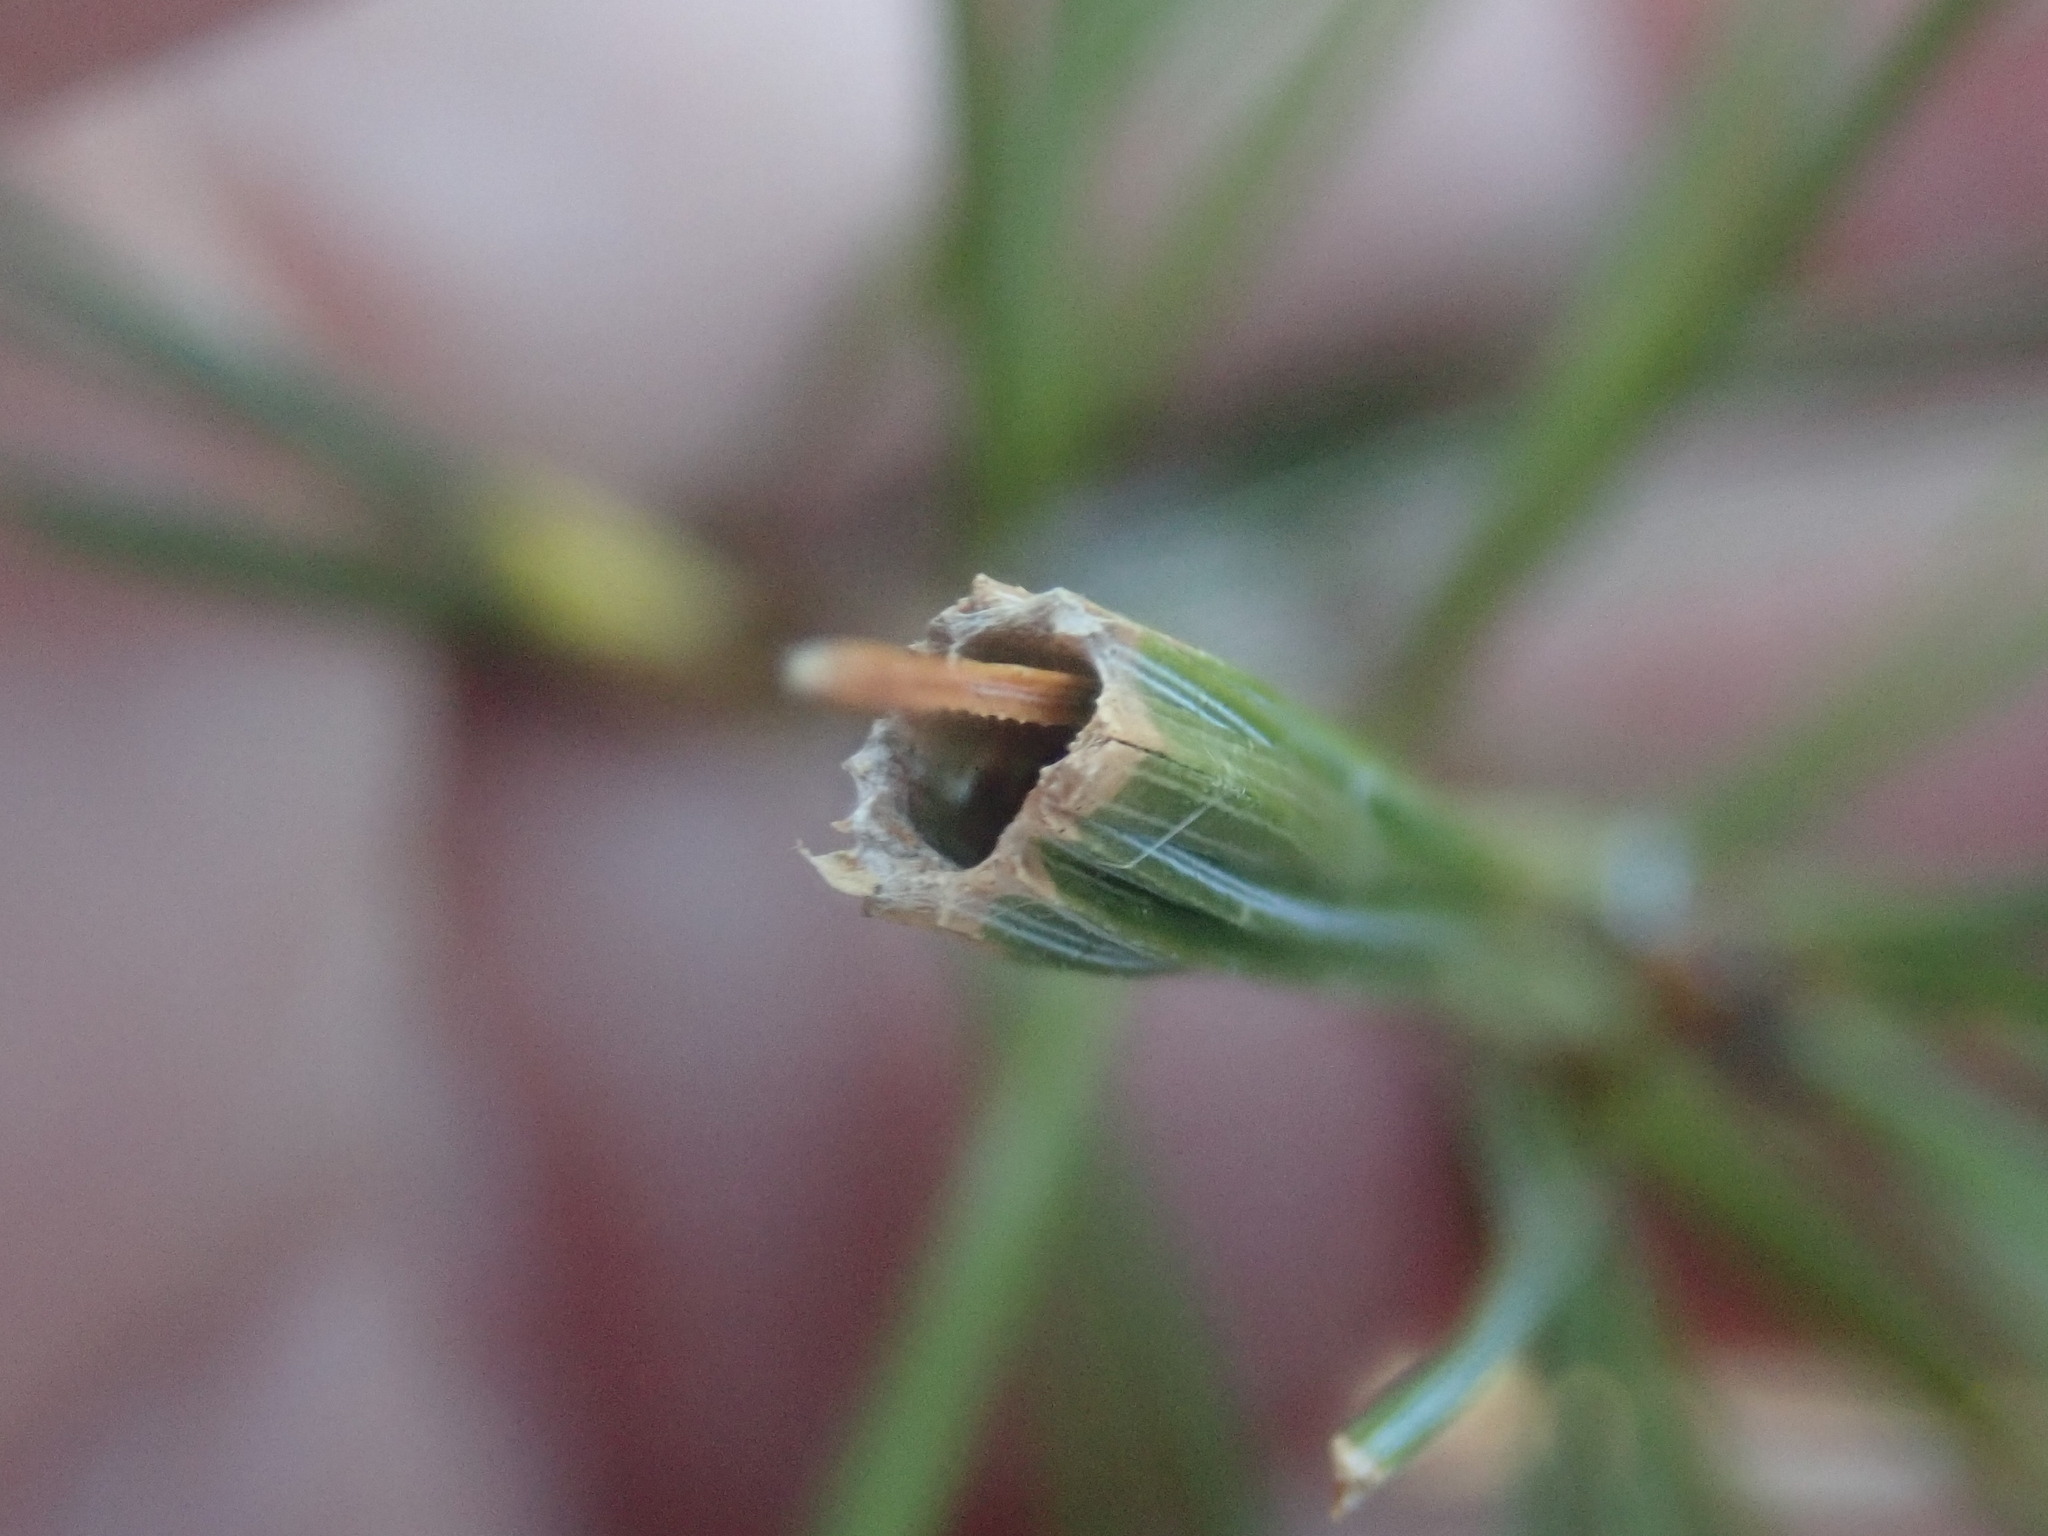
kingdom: Animalia
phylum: Arthropoda
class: Insecta
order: Lepidoptera
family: Tortricidae
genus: Argyrotaenia
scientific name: Argyrotaenia pinatubana
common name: Pine tube moth
